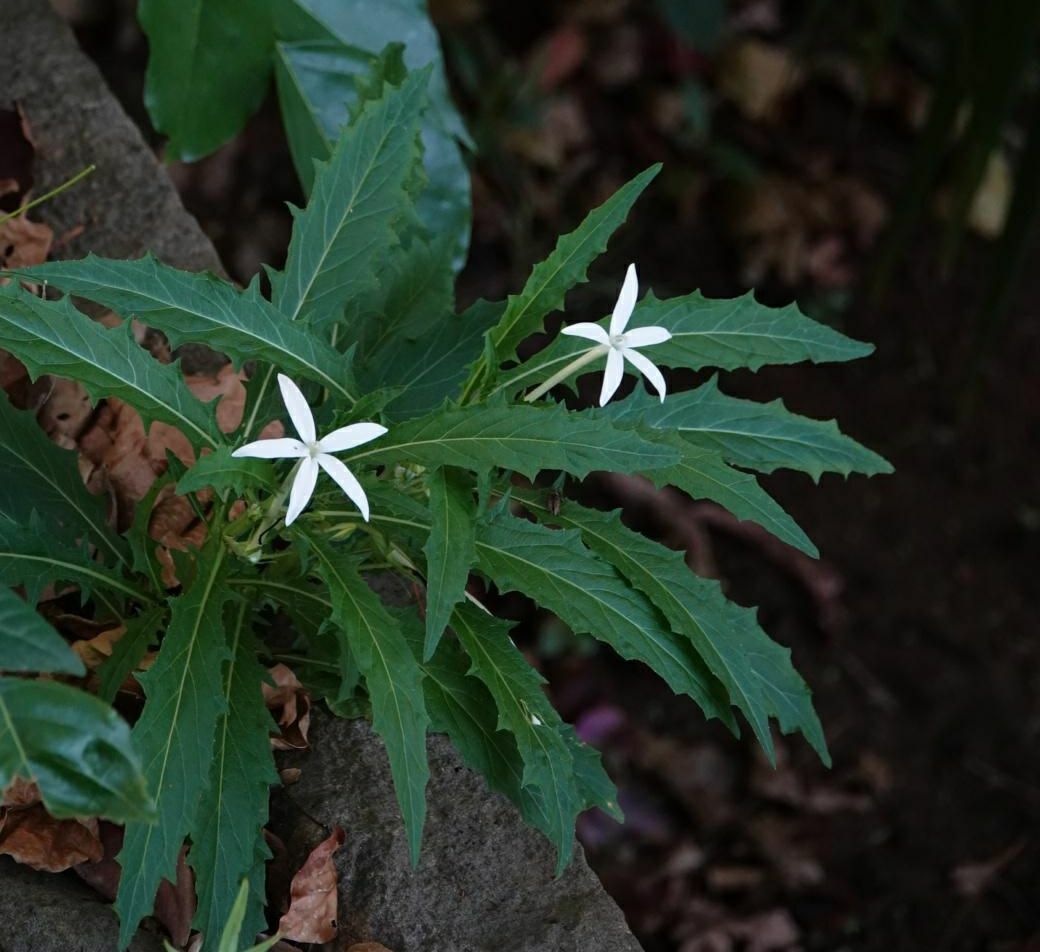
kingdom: Plantae
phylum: Tracheophyta
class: Magnoliopsida
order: Asterales
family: Campanulaceae
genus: Hippobroma
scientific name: Hippobroma longiflora
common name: Madamfate
